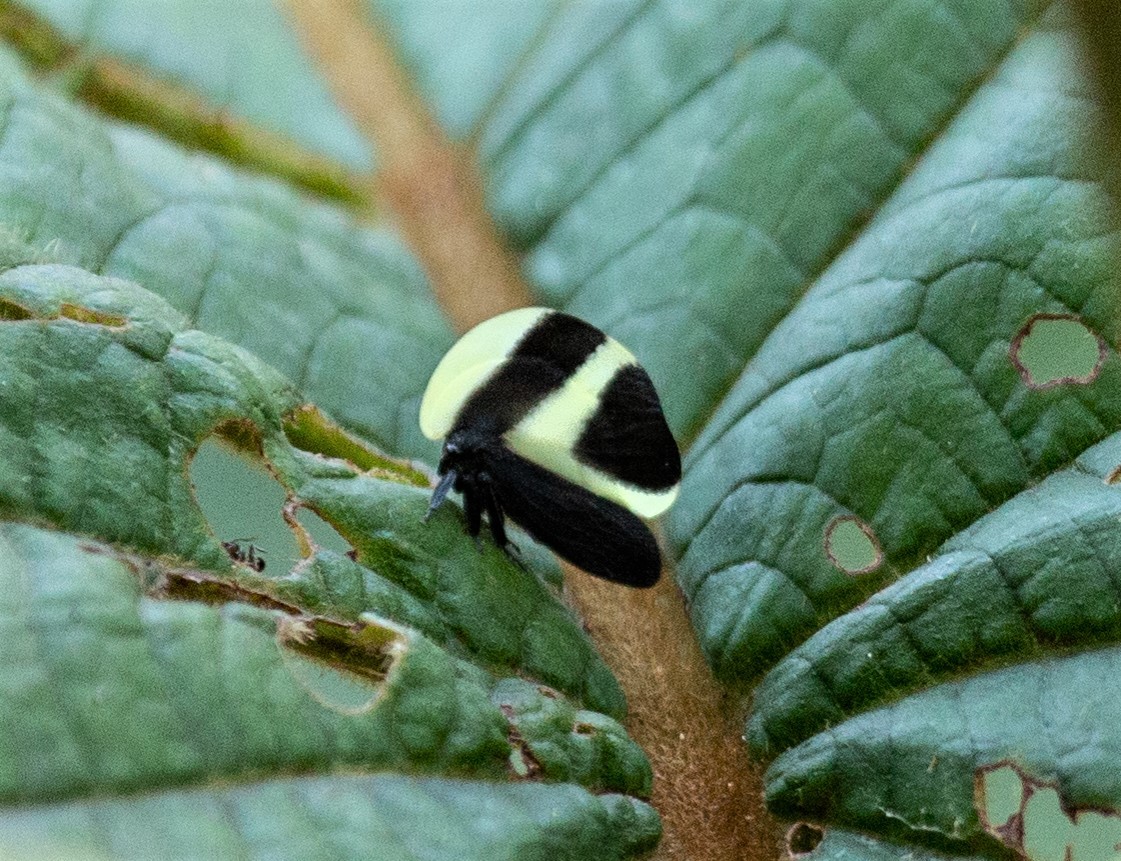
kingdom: Animalia
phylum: Arthropoda
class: Insecta
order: Hemiptera
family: Membracidae
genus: Membracis
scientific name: Membracis foliata
